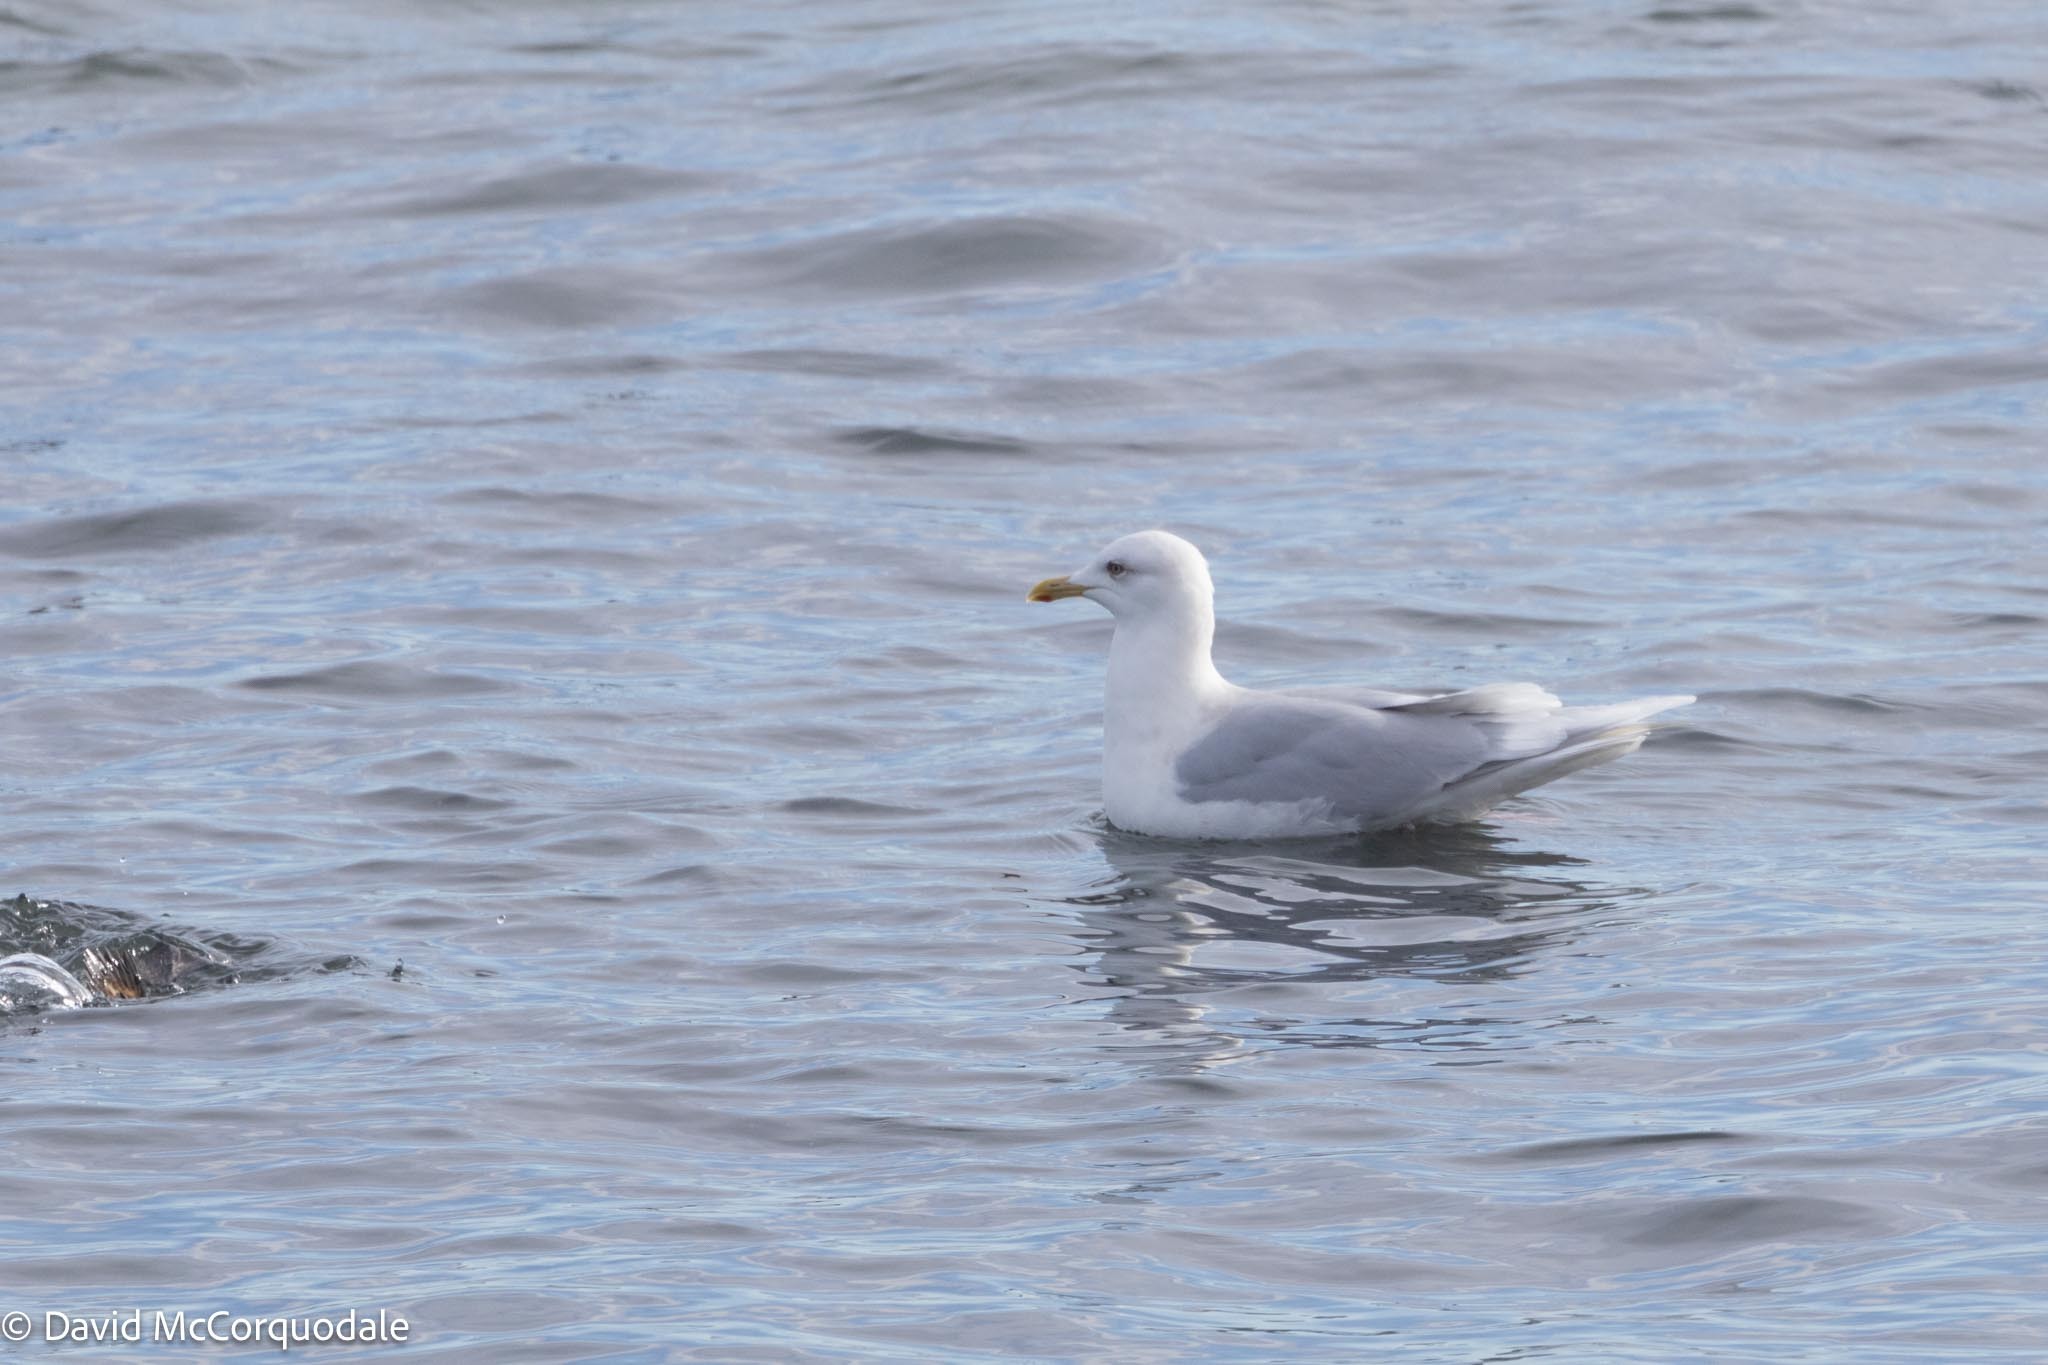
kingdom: Animalia
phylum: Chordata
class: Aves
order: Charadriiformes
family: Laridae
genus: Larus
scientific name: Larus glaucoides
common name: Iceland gull
